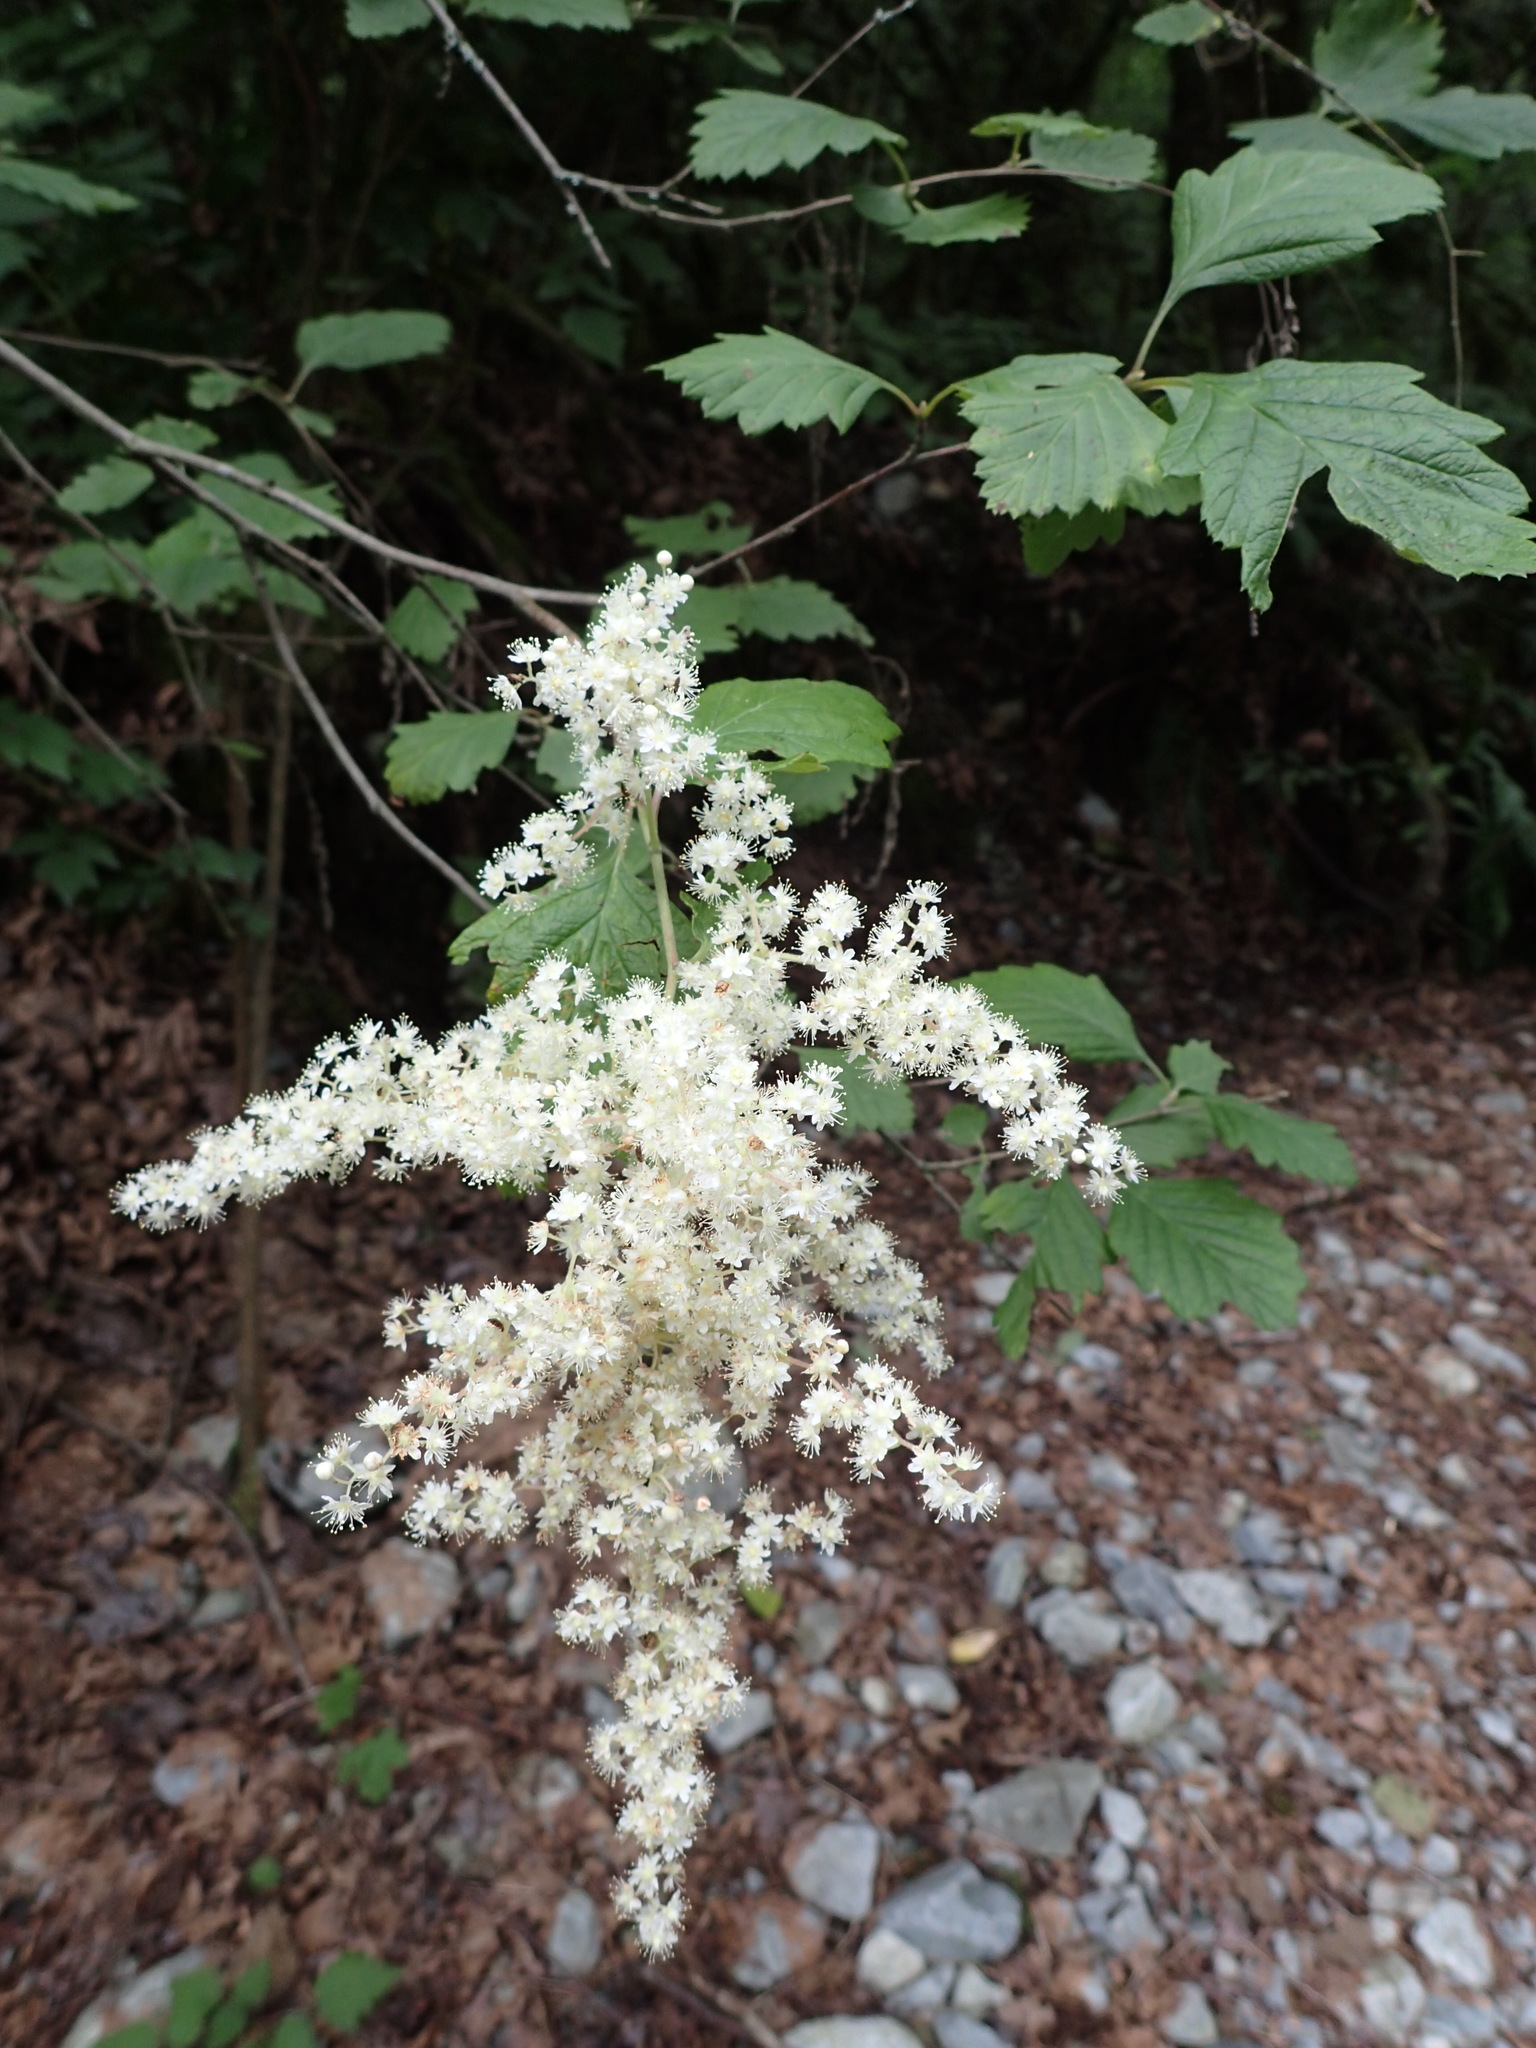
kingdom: Plantae
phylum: Tracheophyta
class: Magnoliopsida
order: Rosales
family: Rosaceae
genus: Holodiscus
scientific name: Holodiscus discolor
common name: Oceanspray
